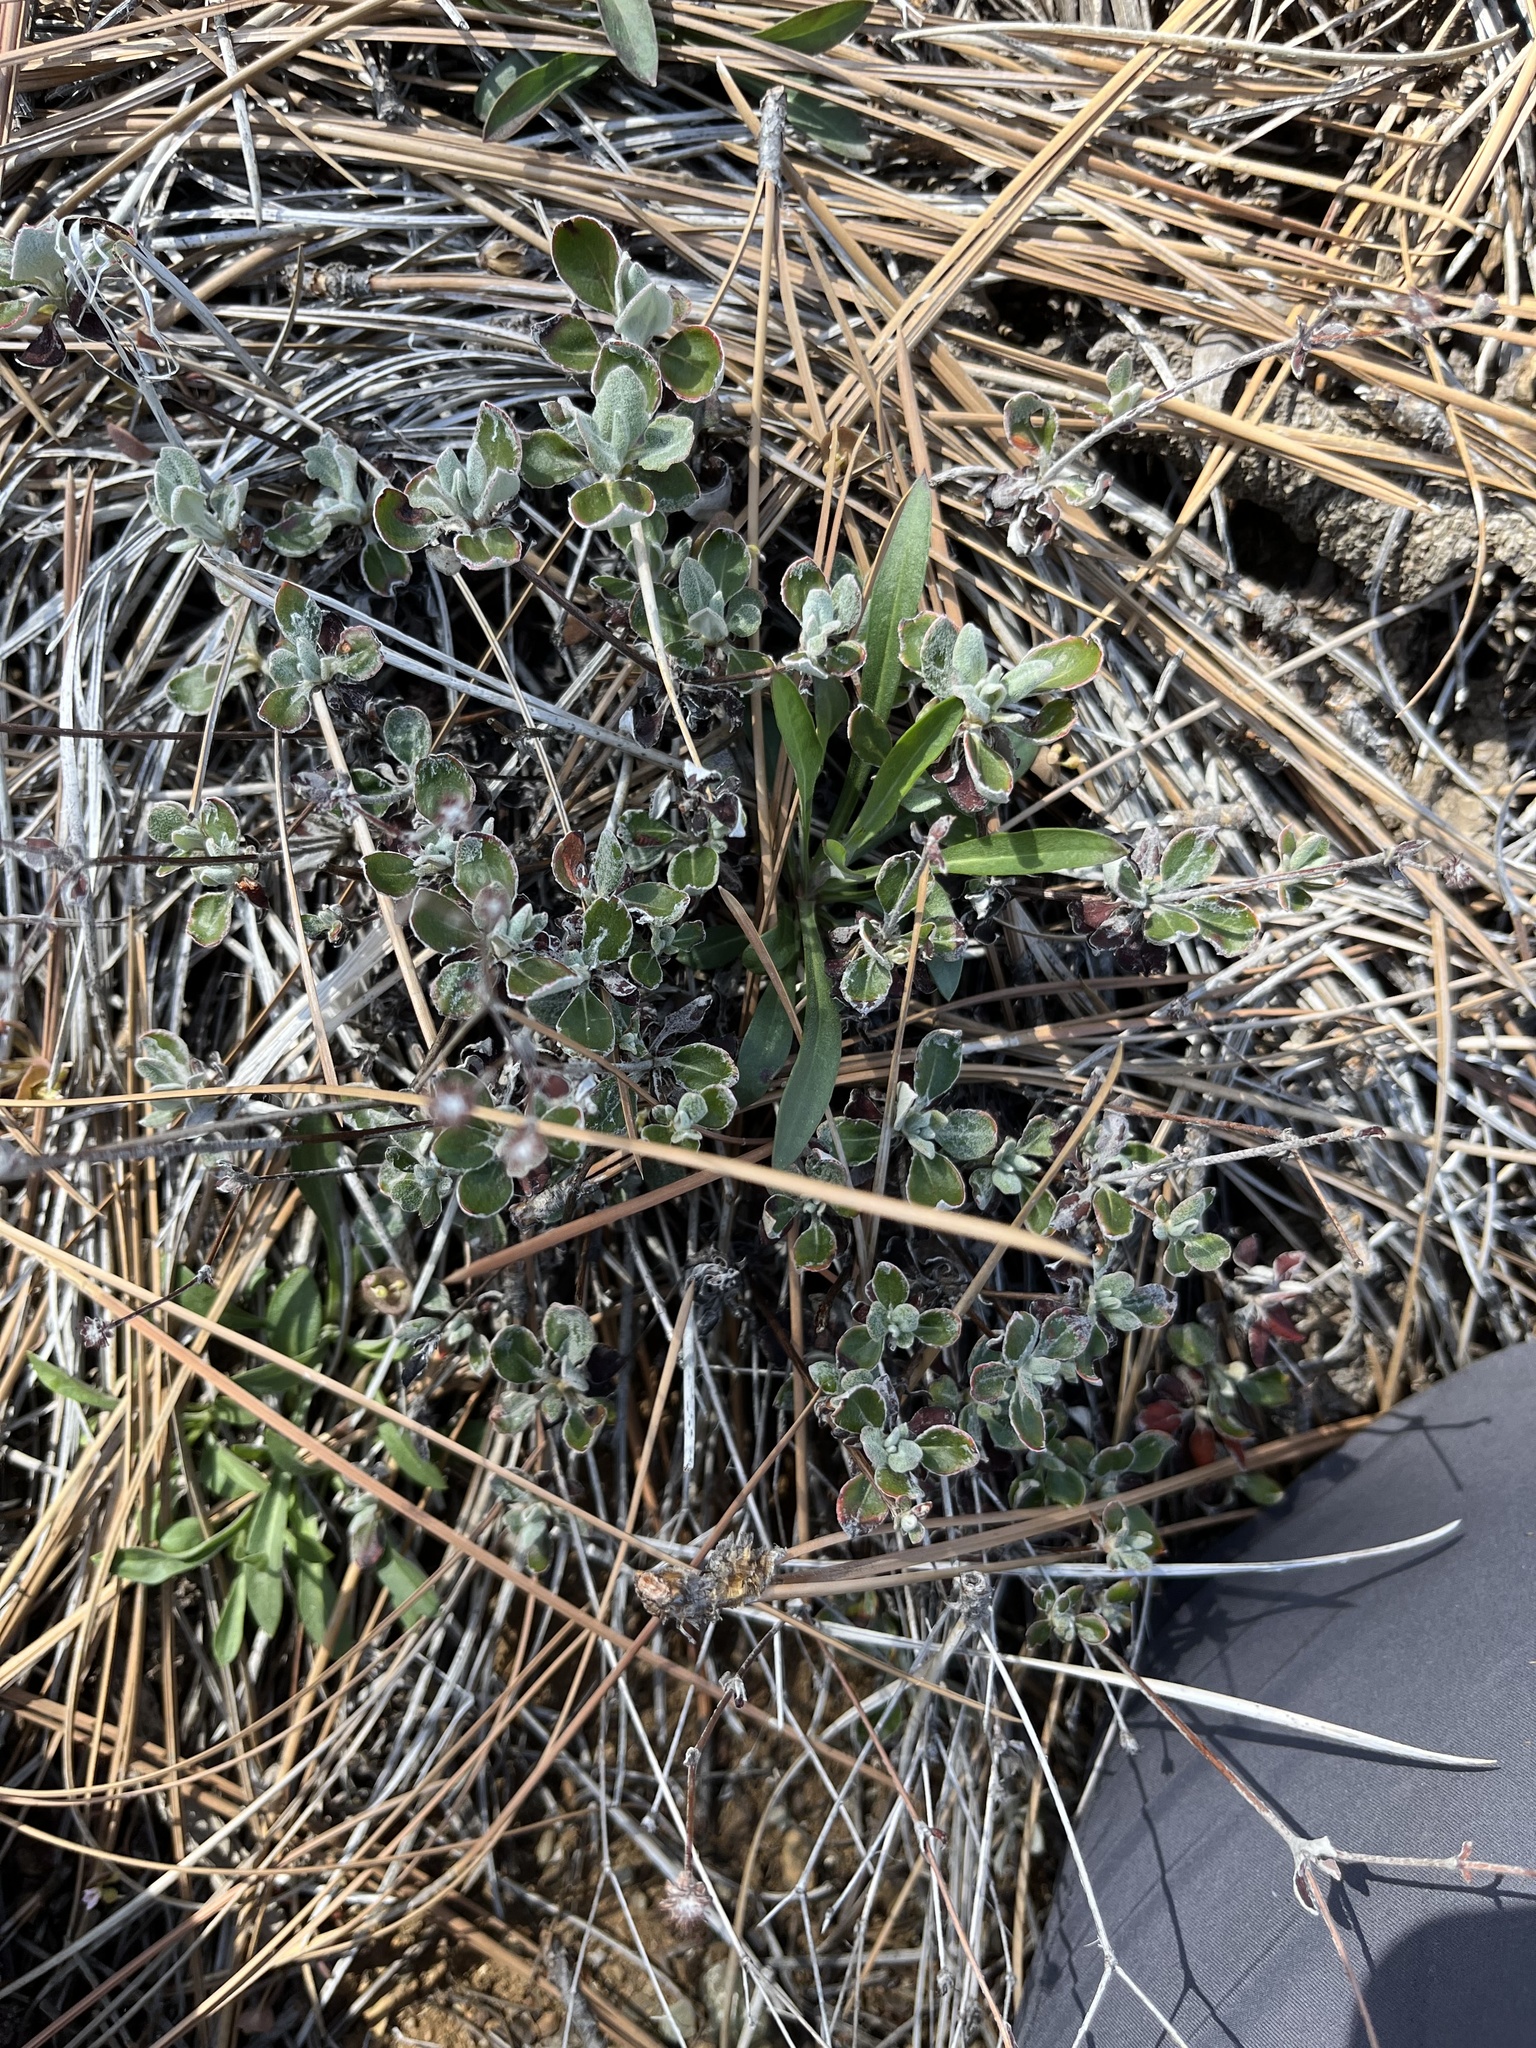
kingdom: Plantae
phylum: Tracheophyta
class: Magnoliopsida
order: Caryophyllales
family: Polygonaceae
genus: Eriogonum
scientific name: Eriogonum umbellatum
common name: Sulfur-buckwheat
